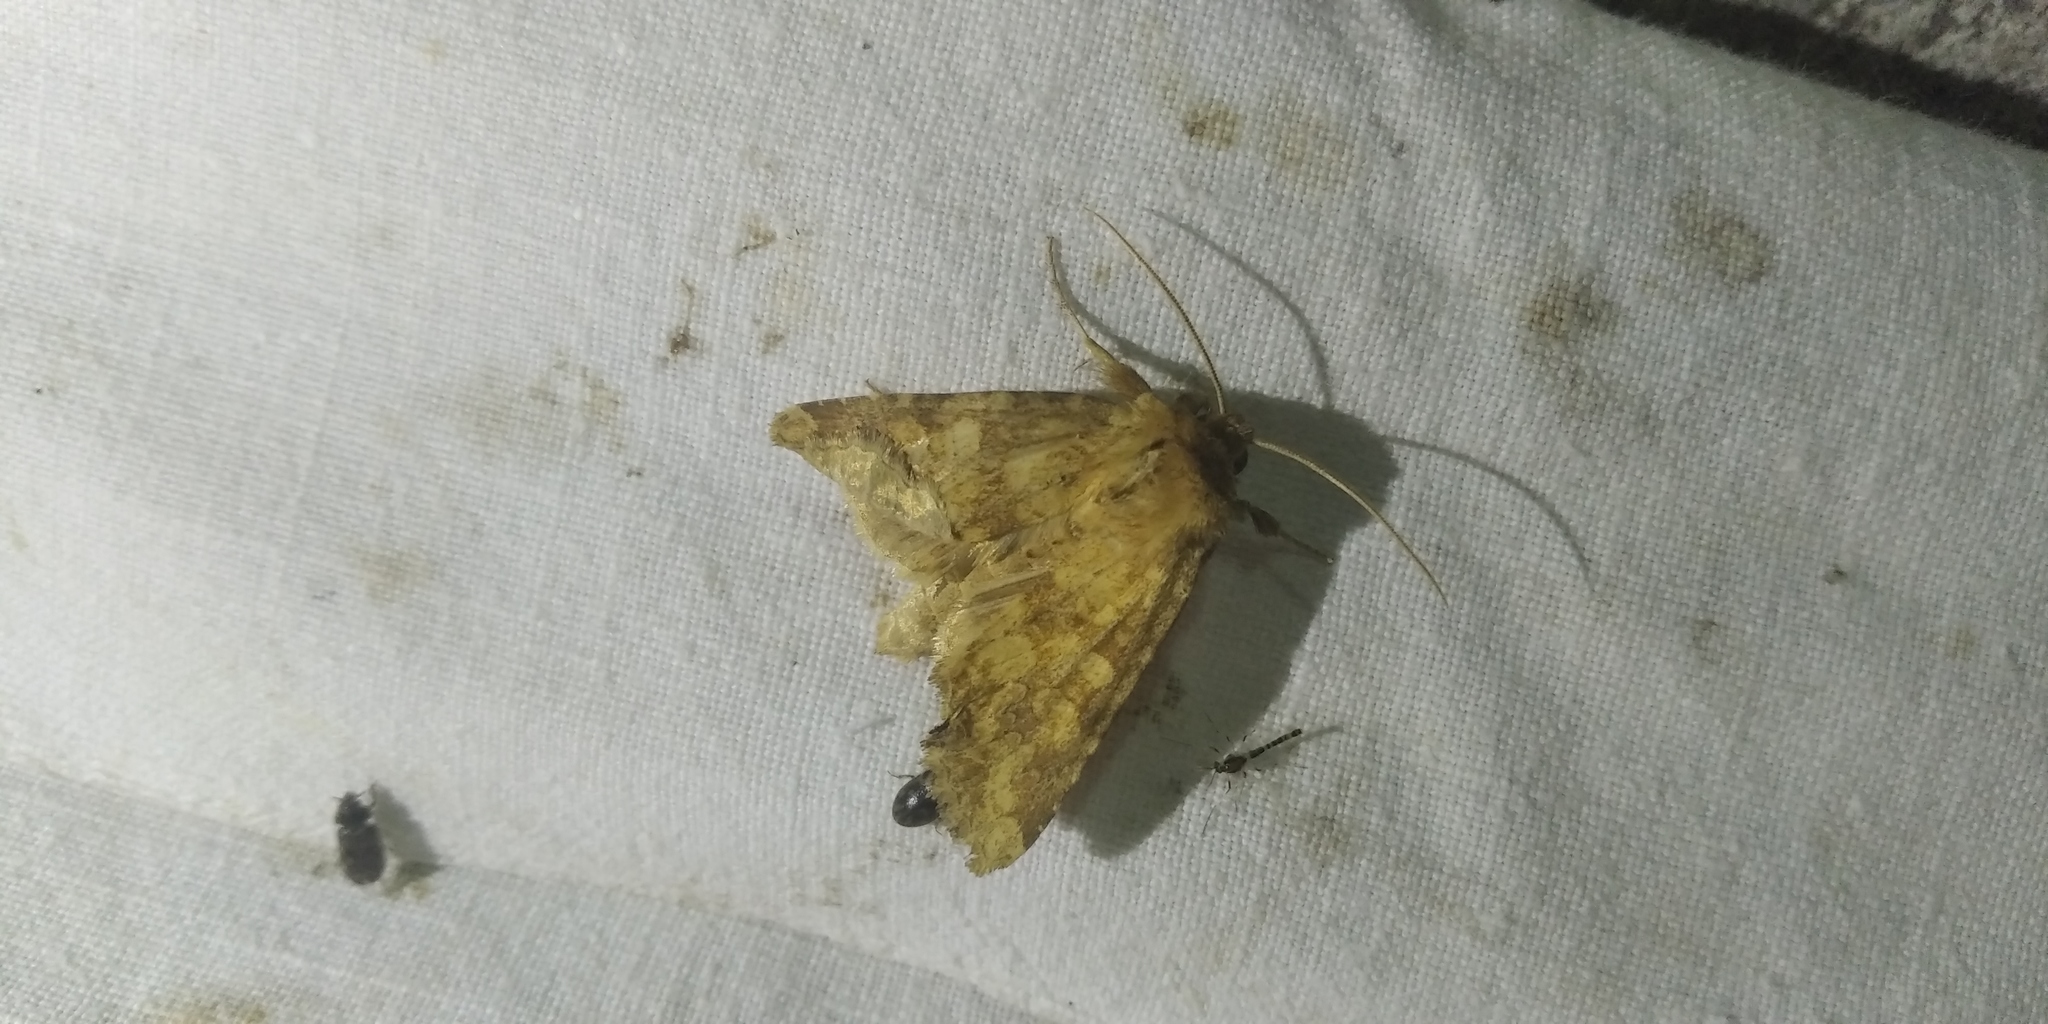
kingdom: Animalia
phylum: Arthropoda
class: Insecta
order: Lepidoptera
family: Noctuidae
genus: Conisania
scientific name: Conisania luteago
